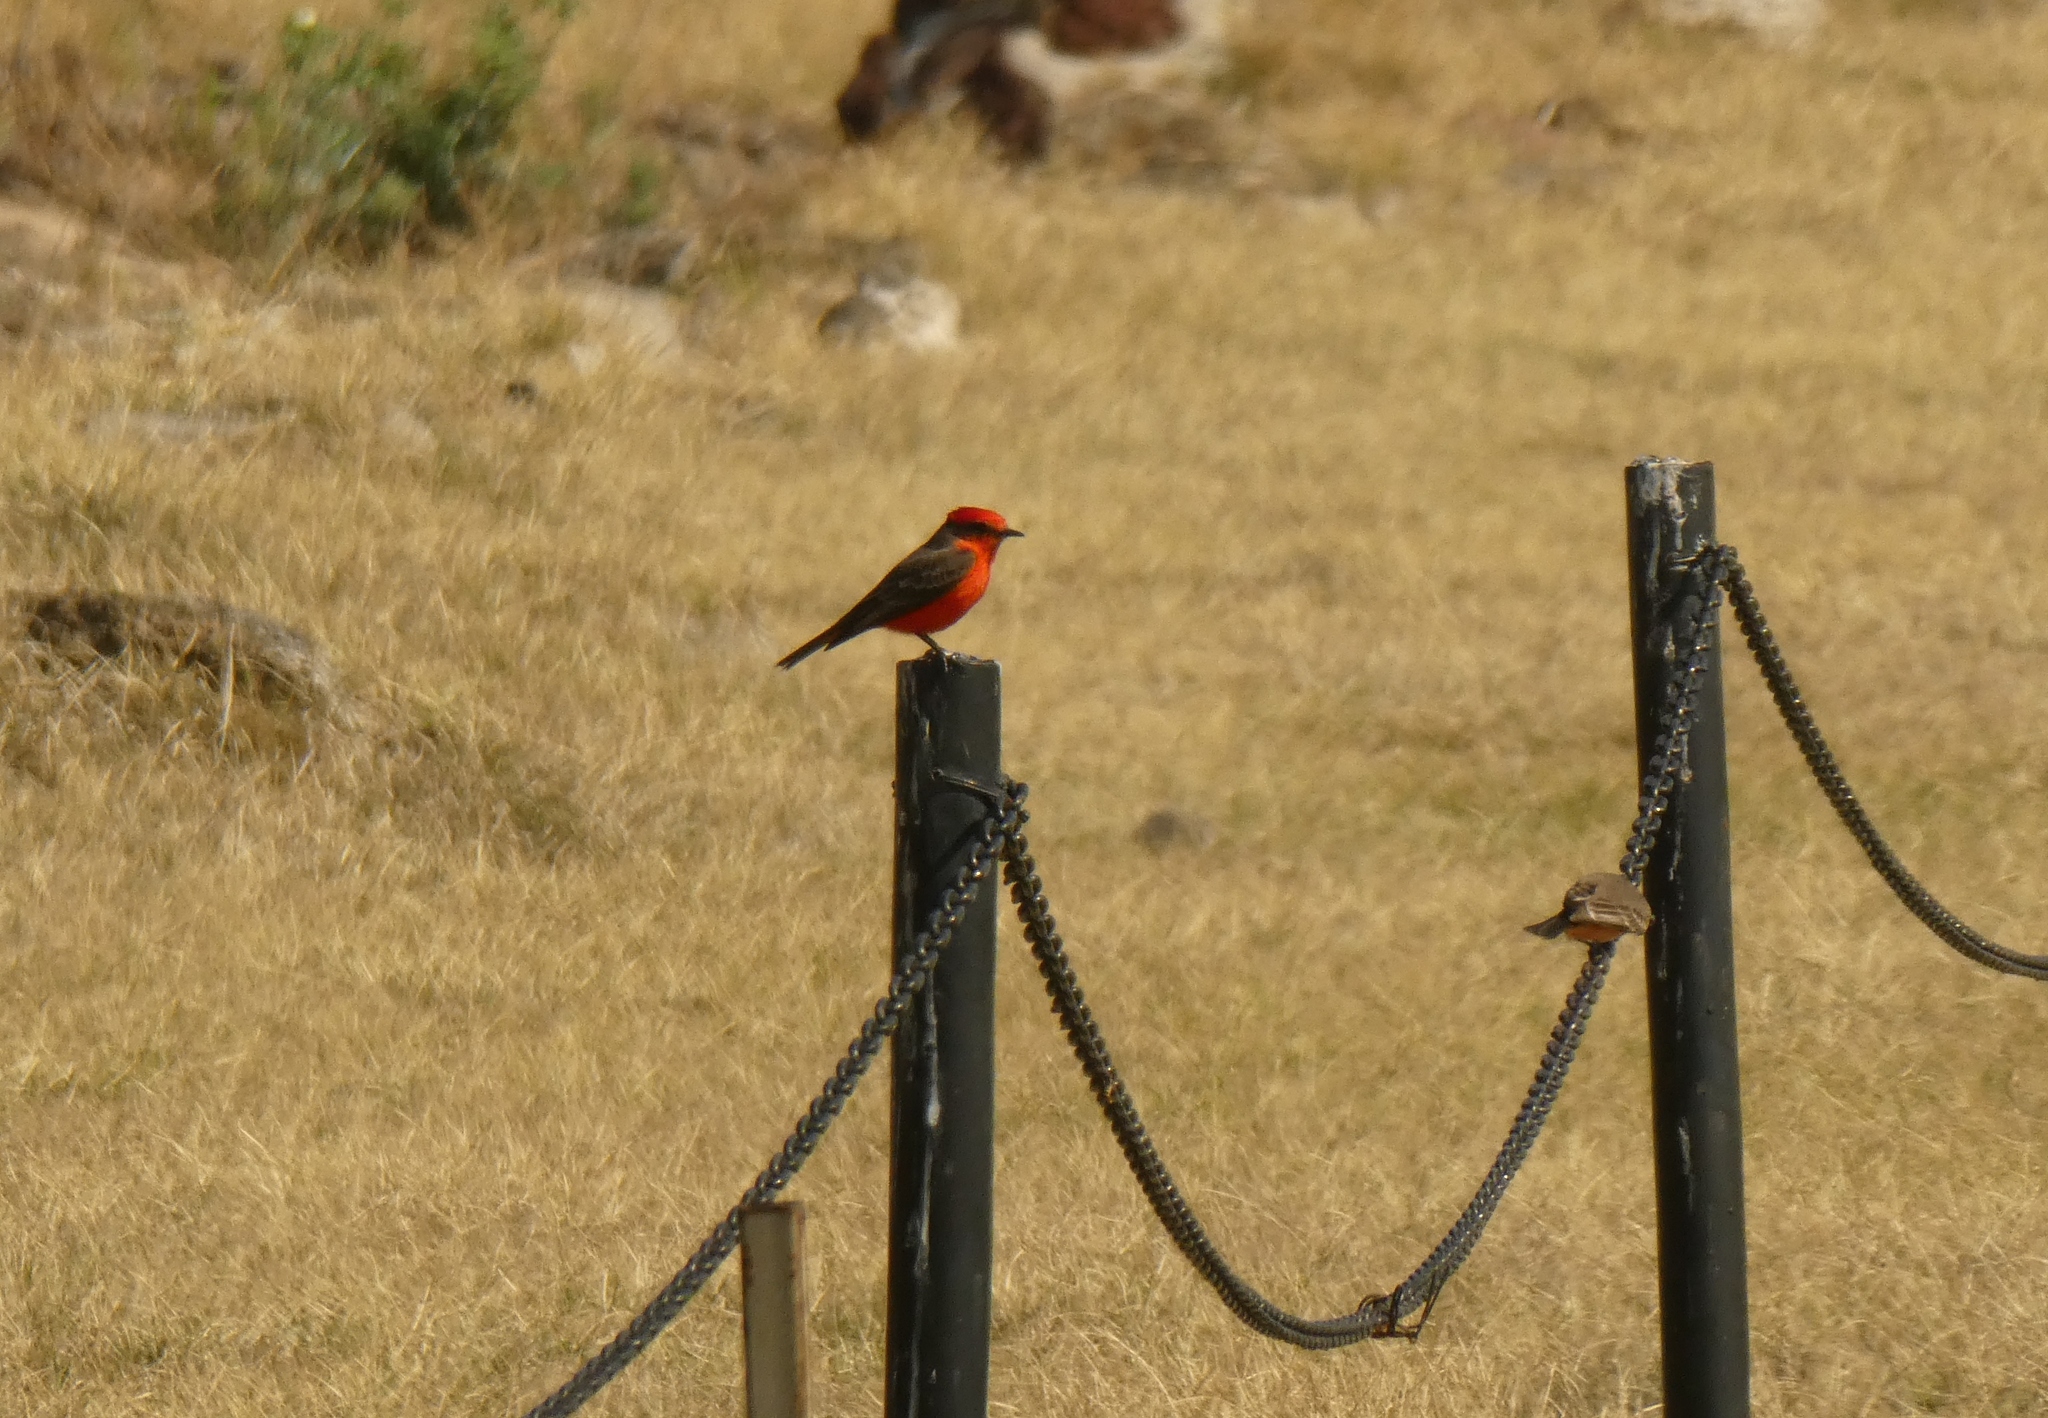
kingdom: Animalia
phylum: Chordata
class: Aves
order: Passeriformes
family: Tyrannidae
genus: Pyrocephalus
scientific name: Pyrocephalus rubinus
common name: Vermilion flycatcher
